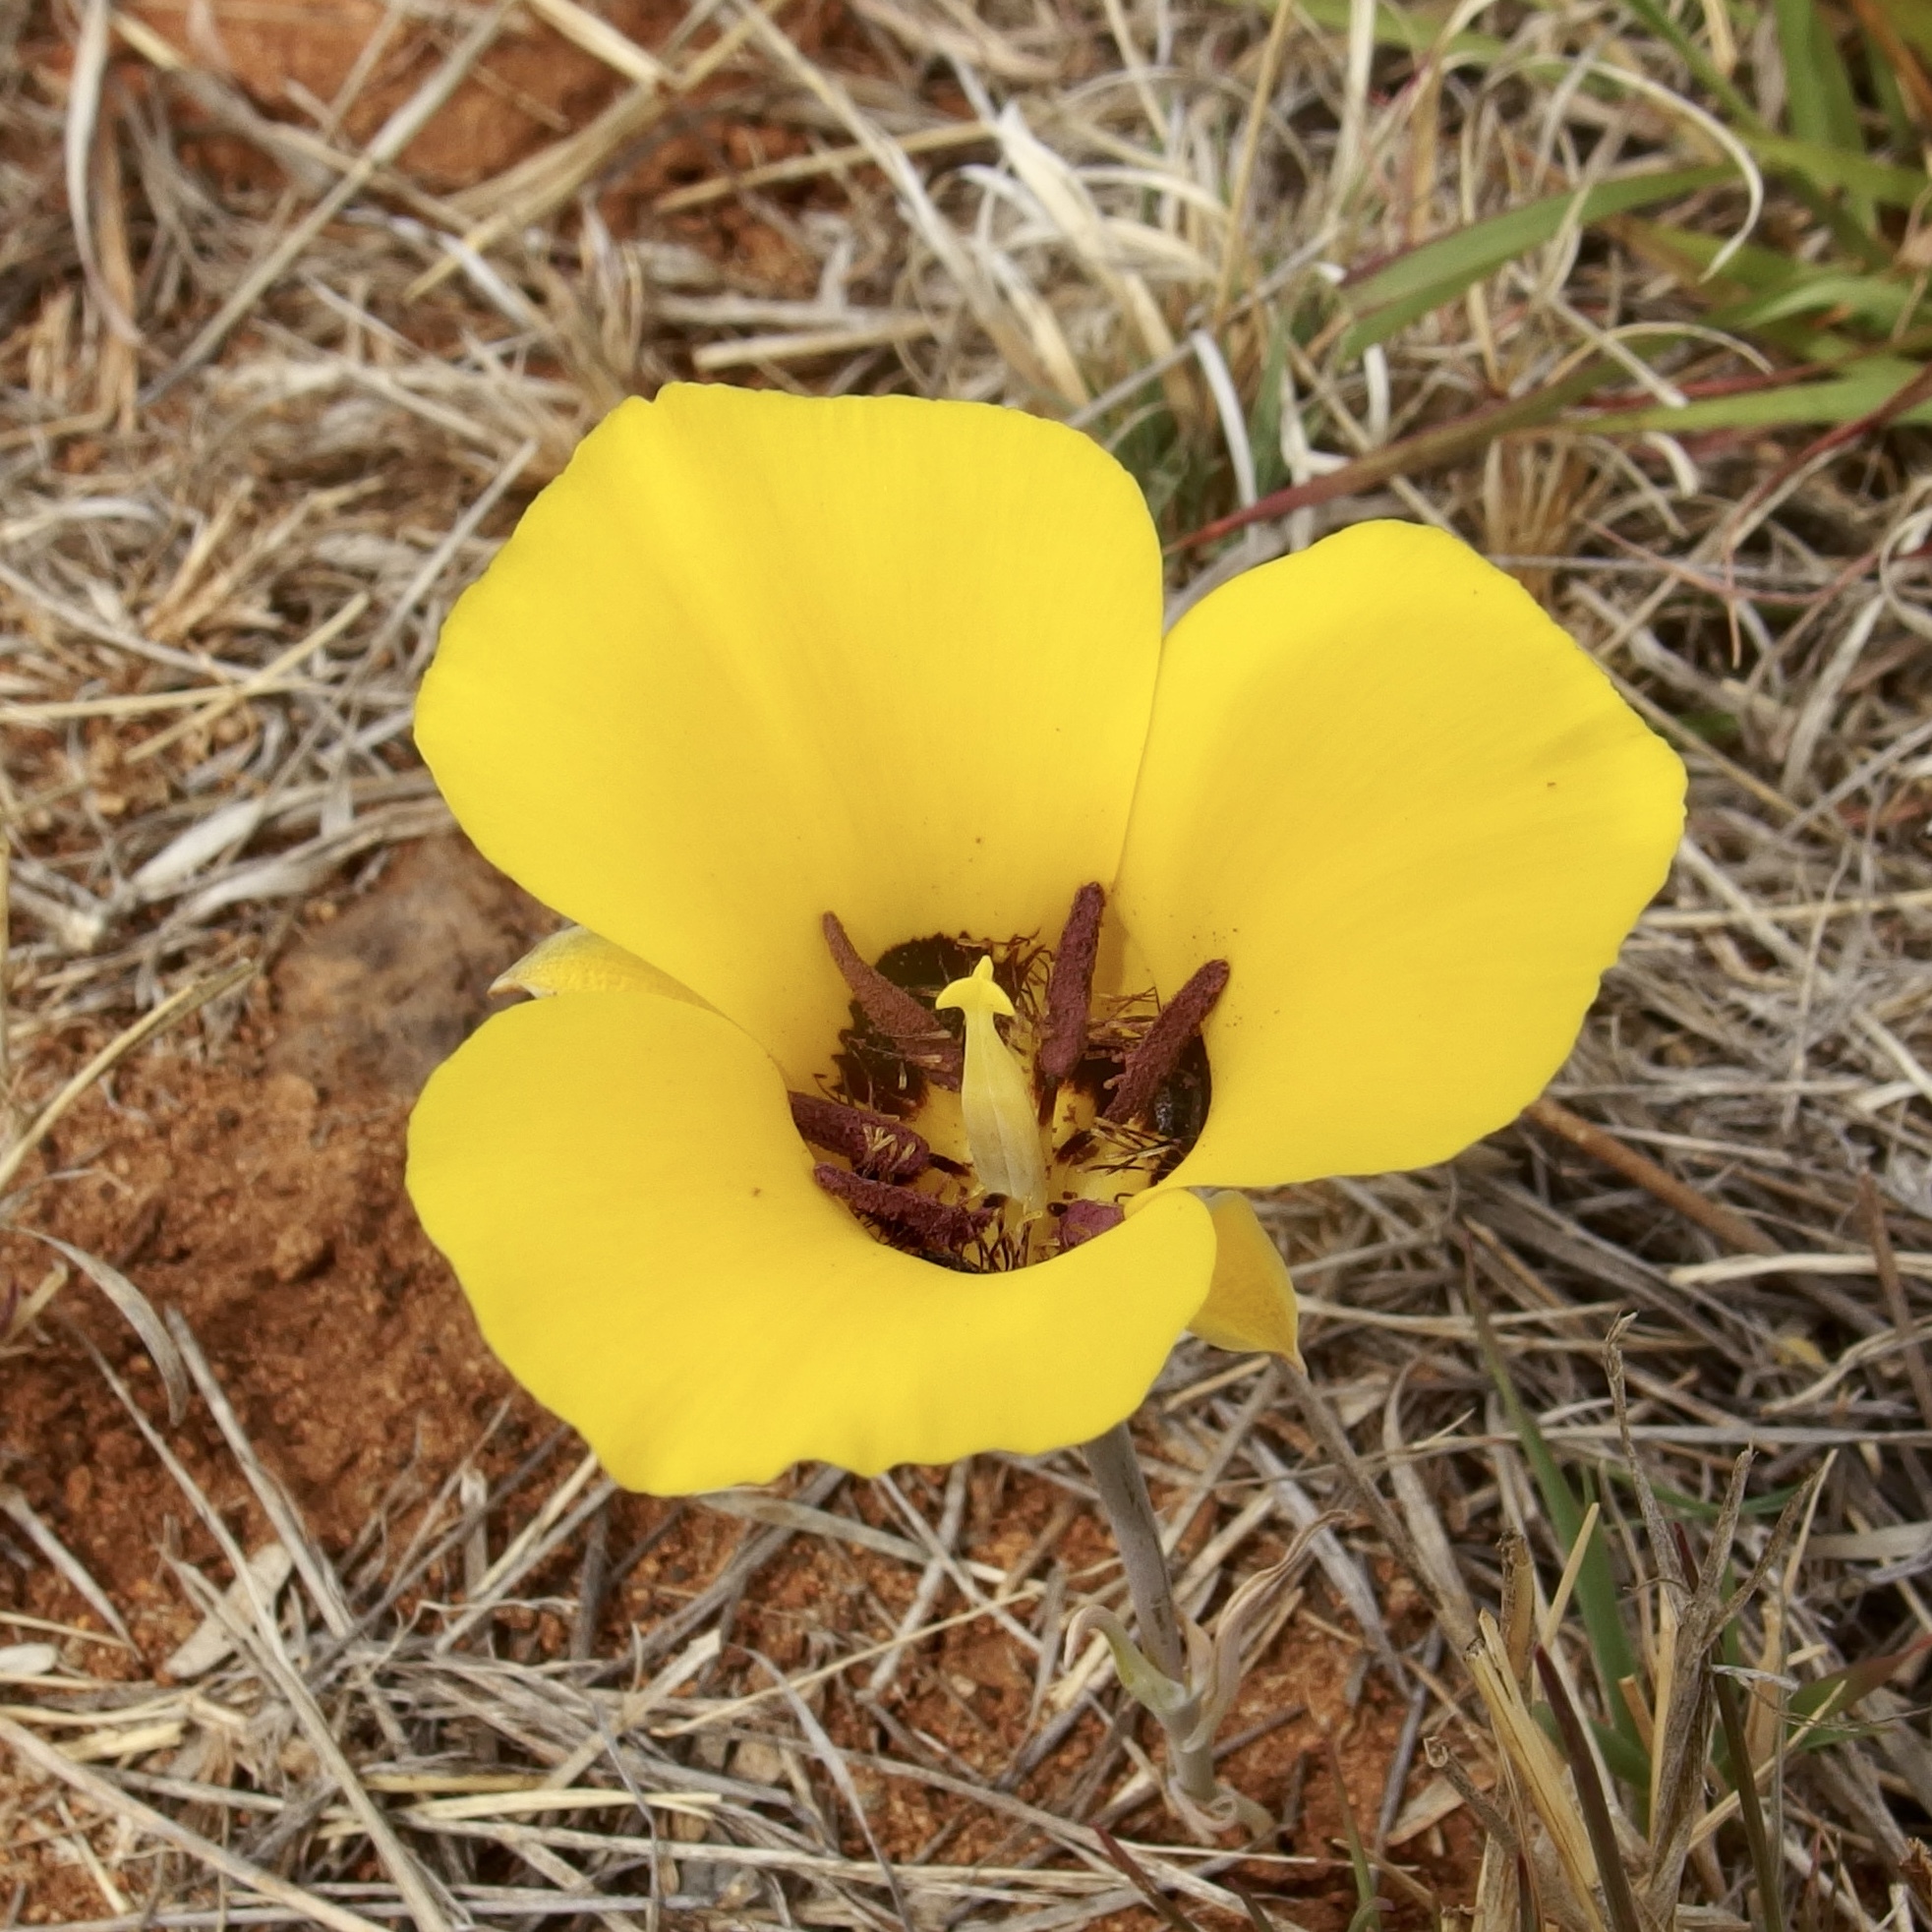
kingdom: Plantae
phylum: Tracheophyta
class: Liliopsida
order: Liliales
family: Liliaceae
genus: Calochortus
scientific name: Calochortus kennedyi
